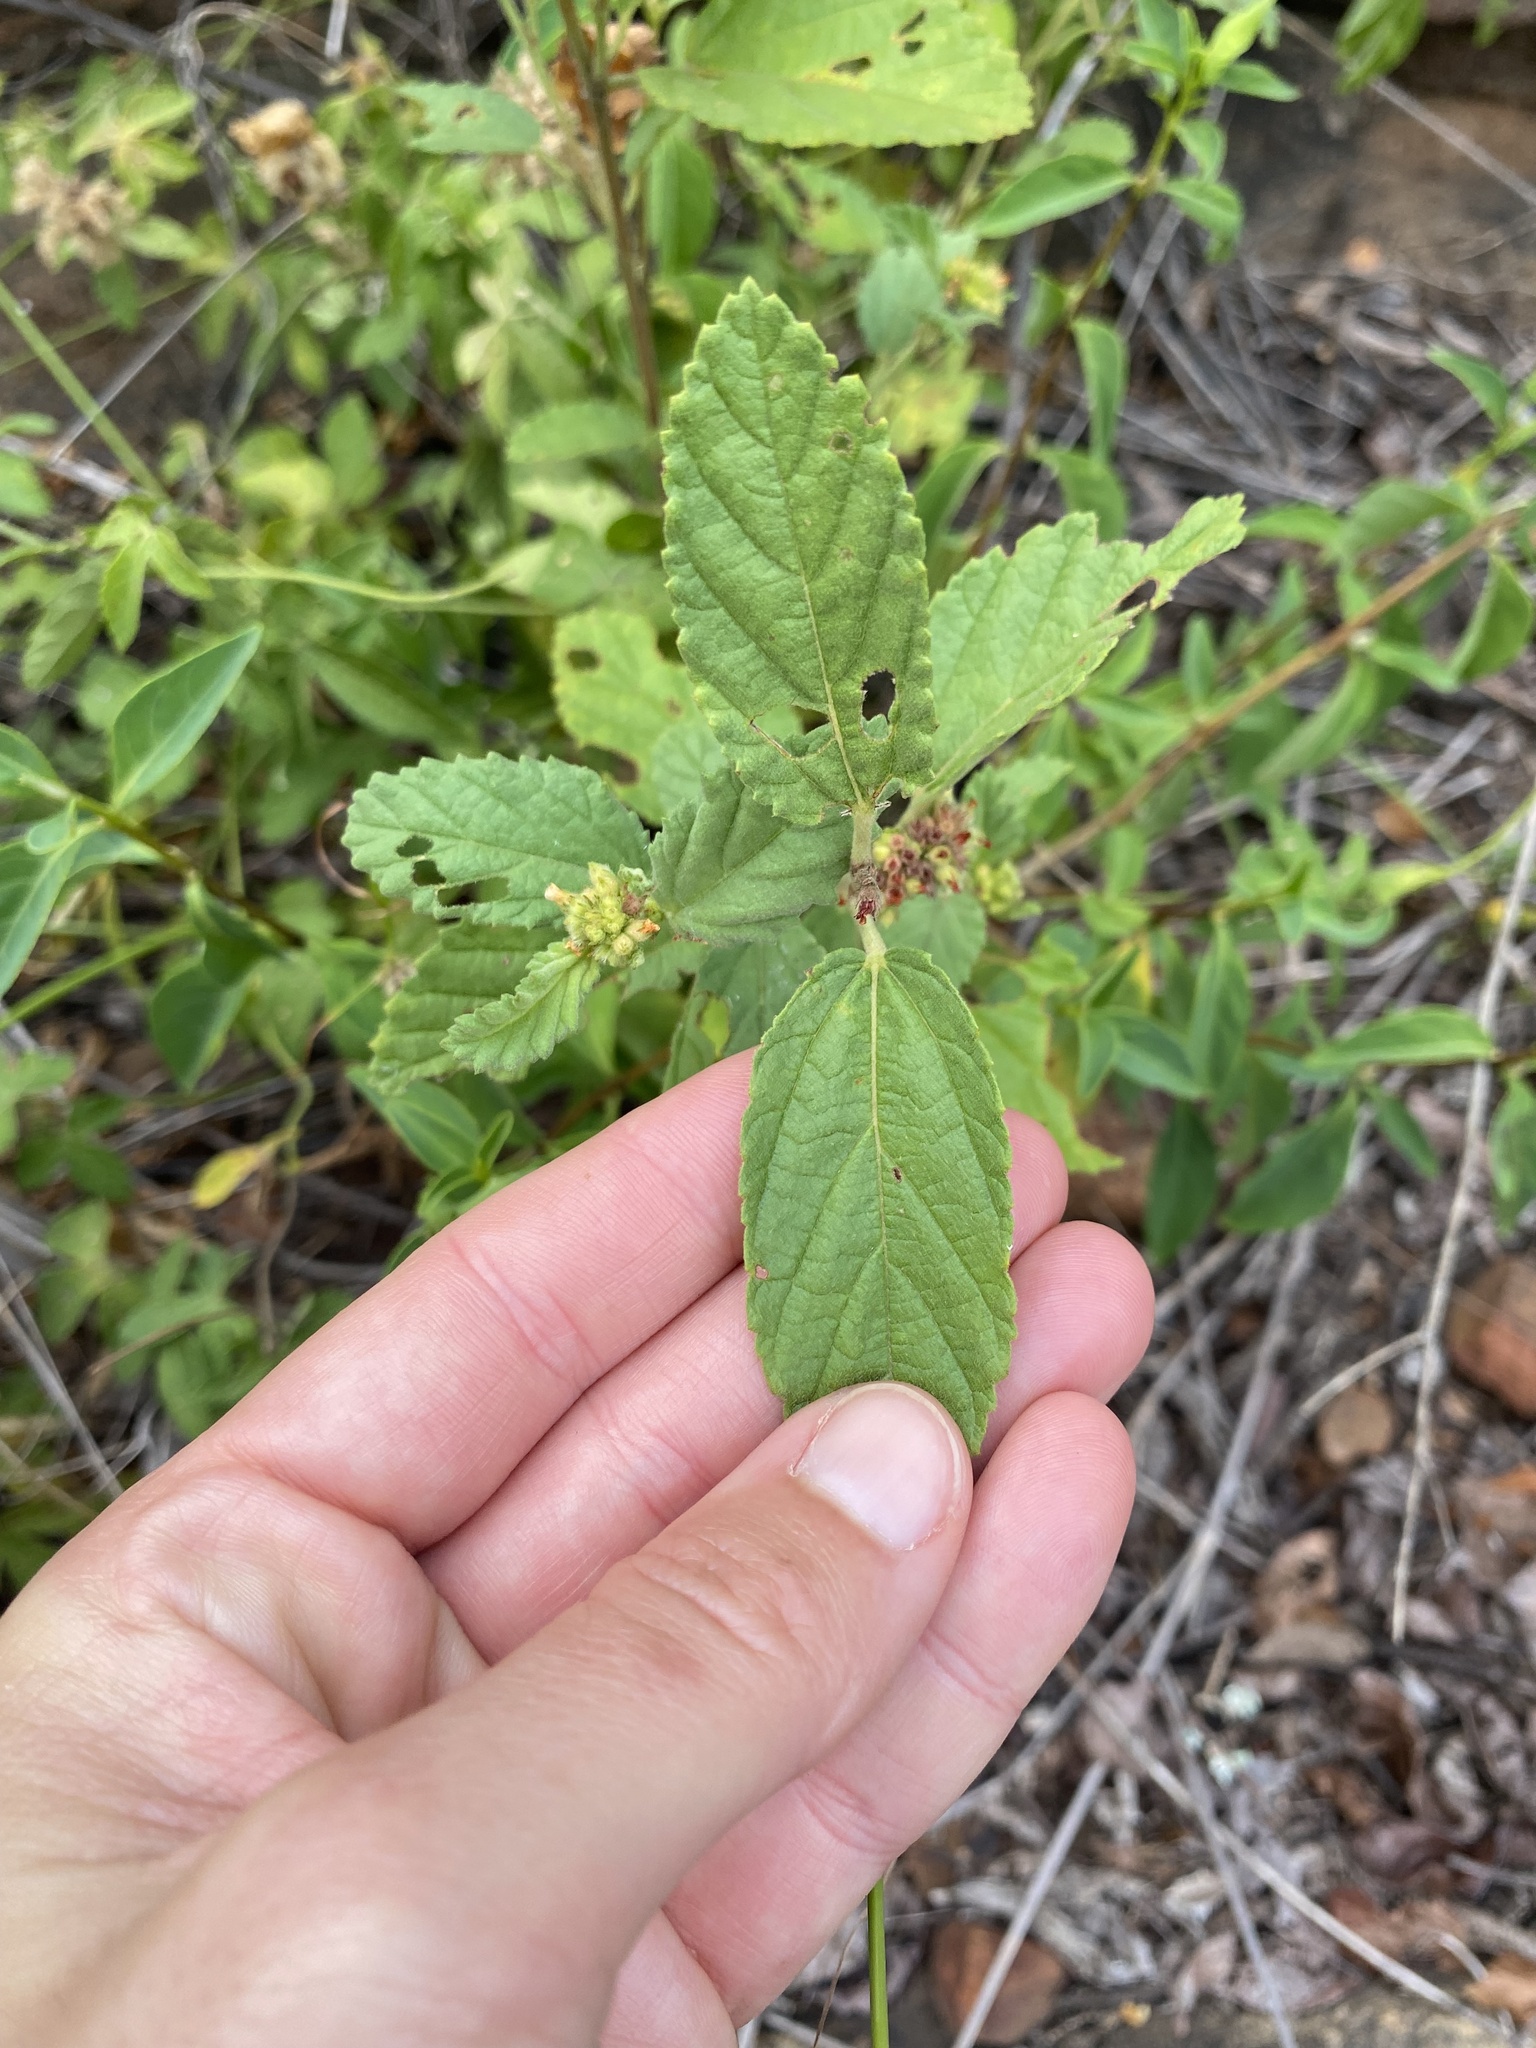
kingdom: Plantae
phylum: Tracheophyta
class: Magnoliopsida
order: Malvales
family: Malvaceae
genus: Waltheria
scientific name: Waltheria indica
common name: Leather-coat
